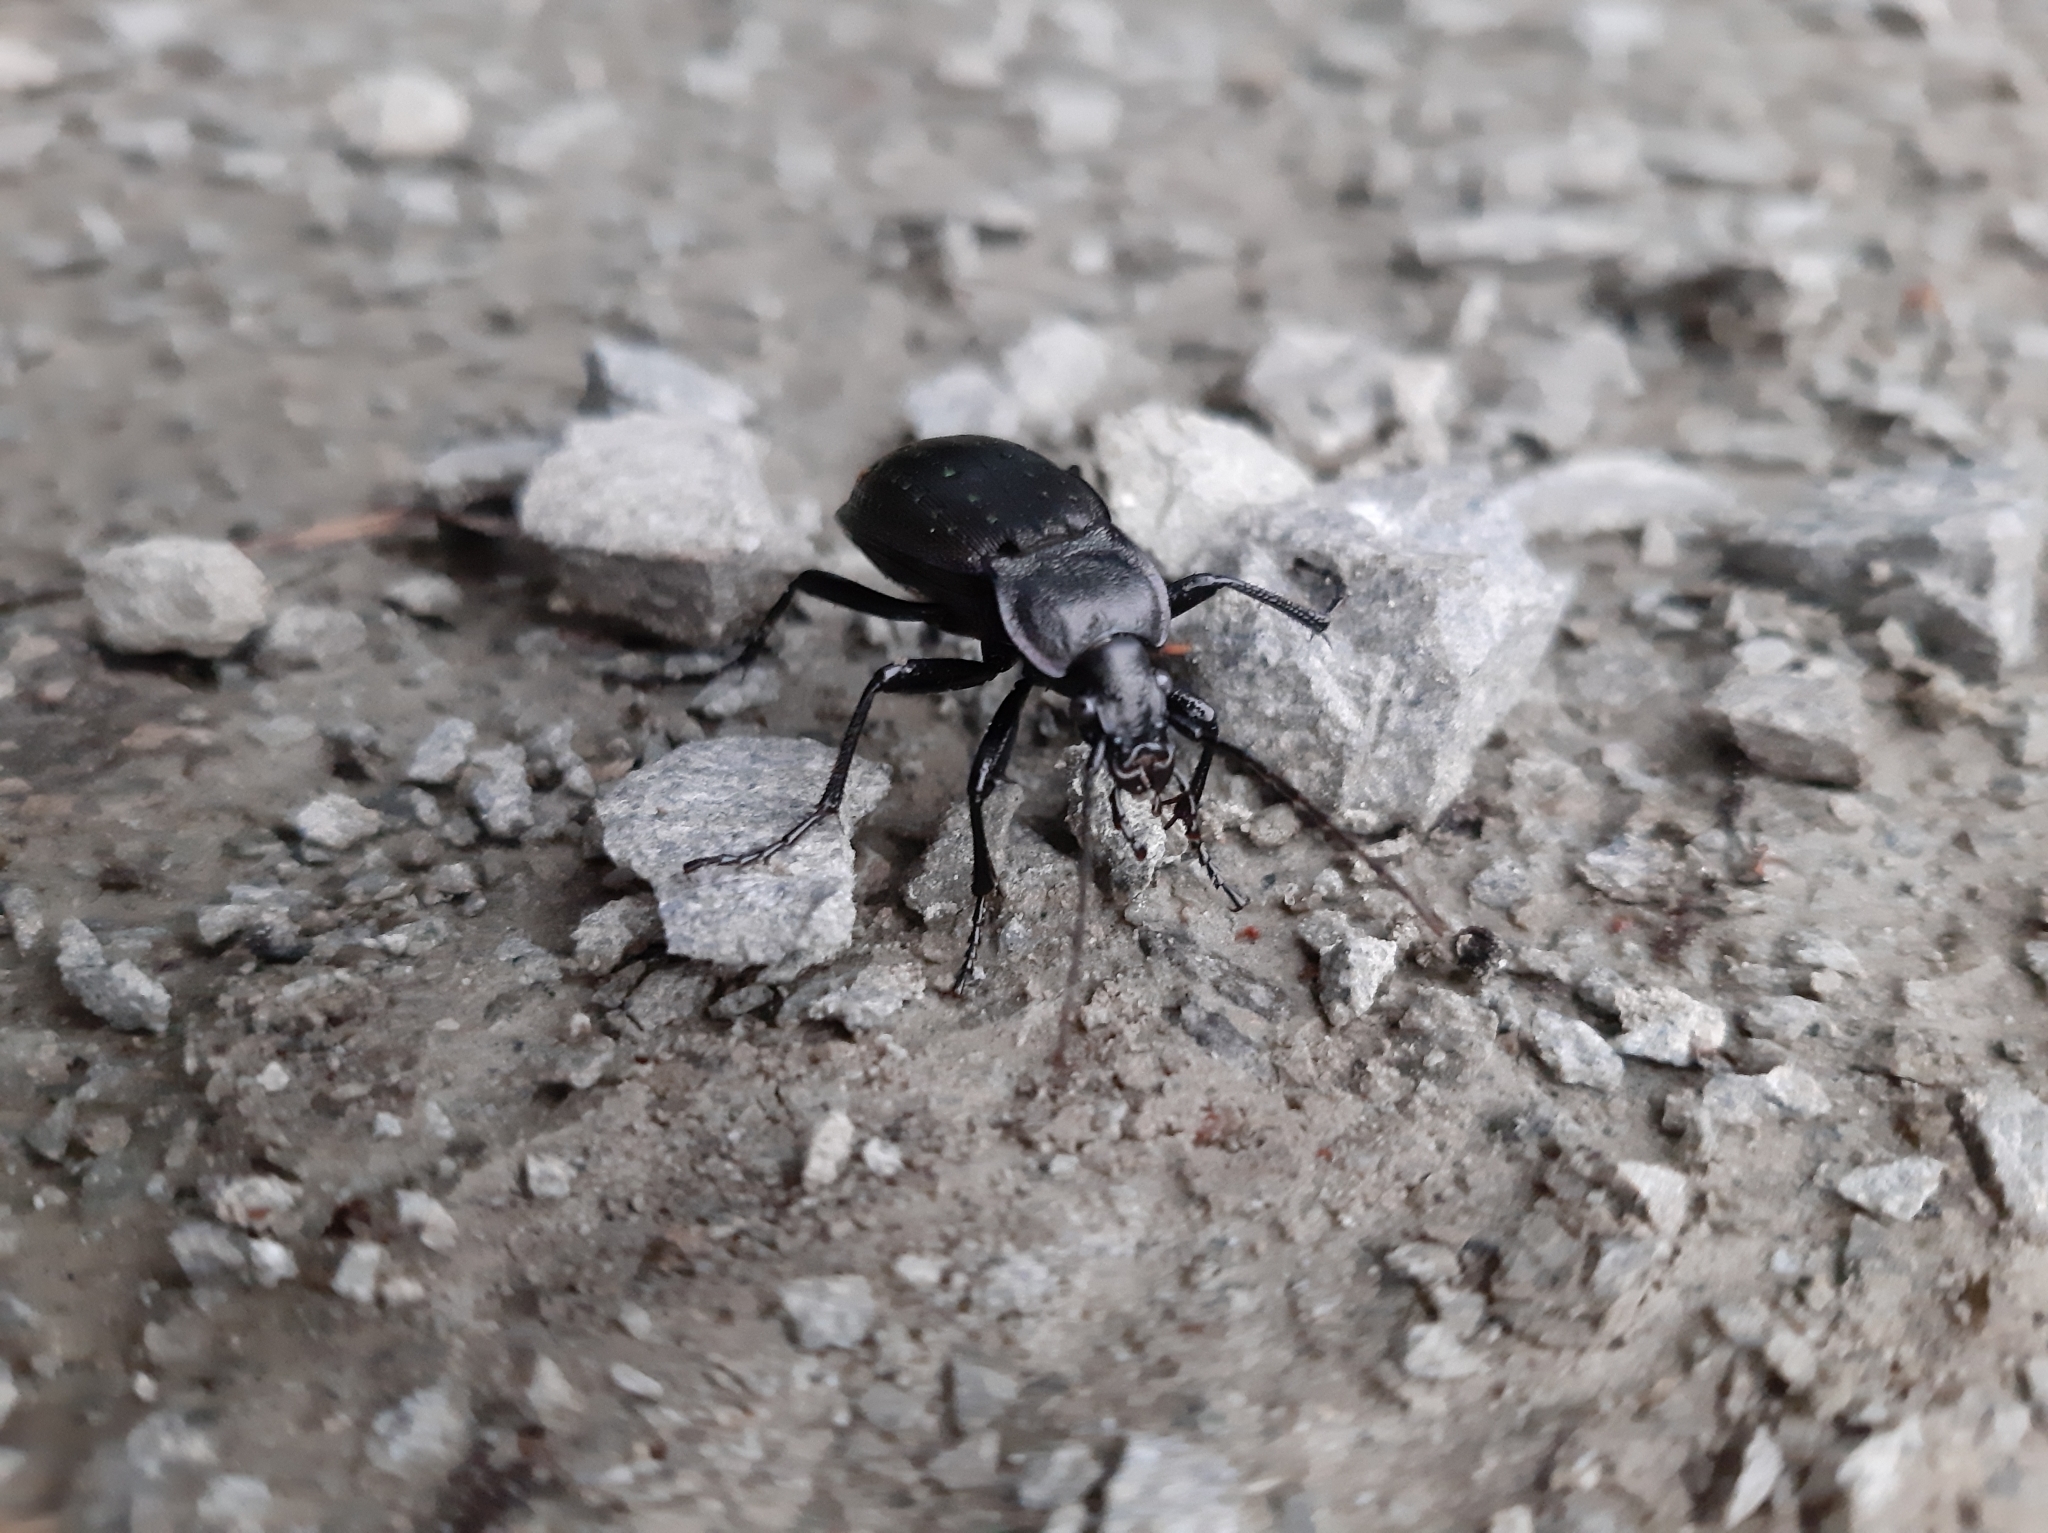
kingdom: Animalia
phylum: Arthropoda
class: Insecta
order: Coleoptera
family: Carabidae
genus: Carabus
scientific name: Carabus hortensis
